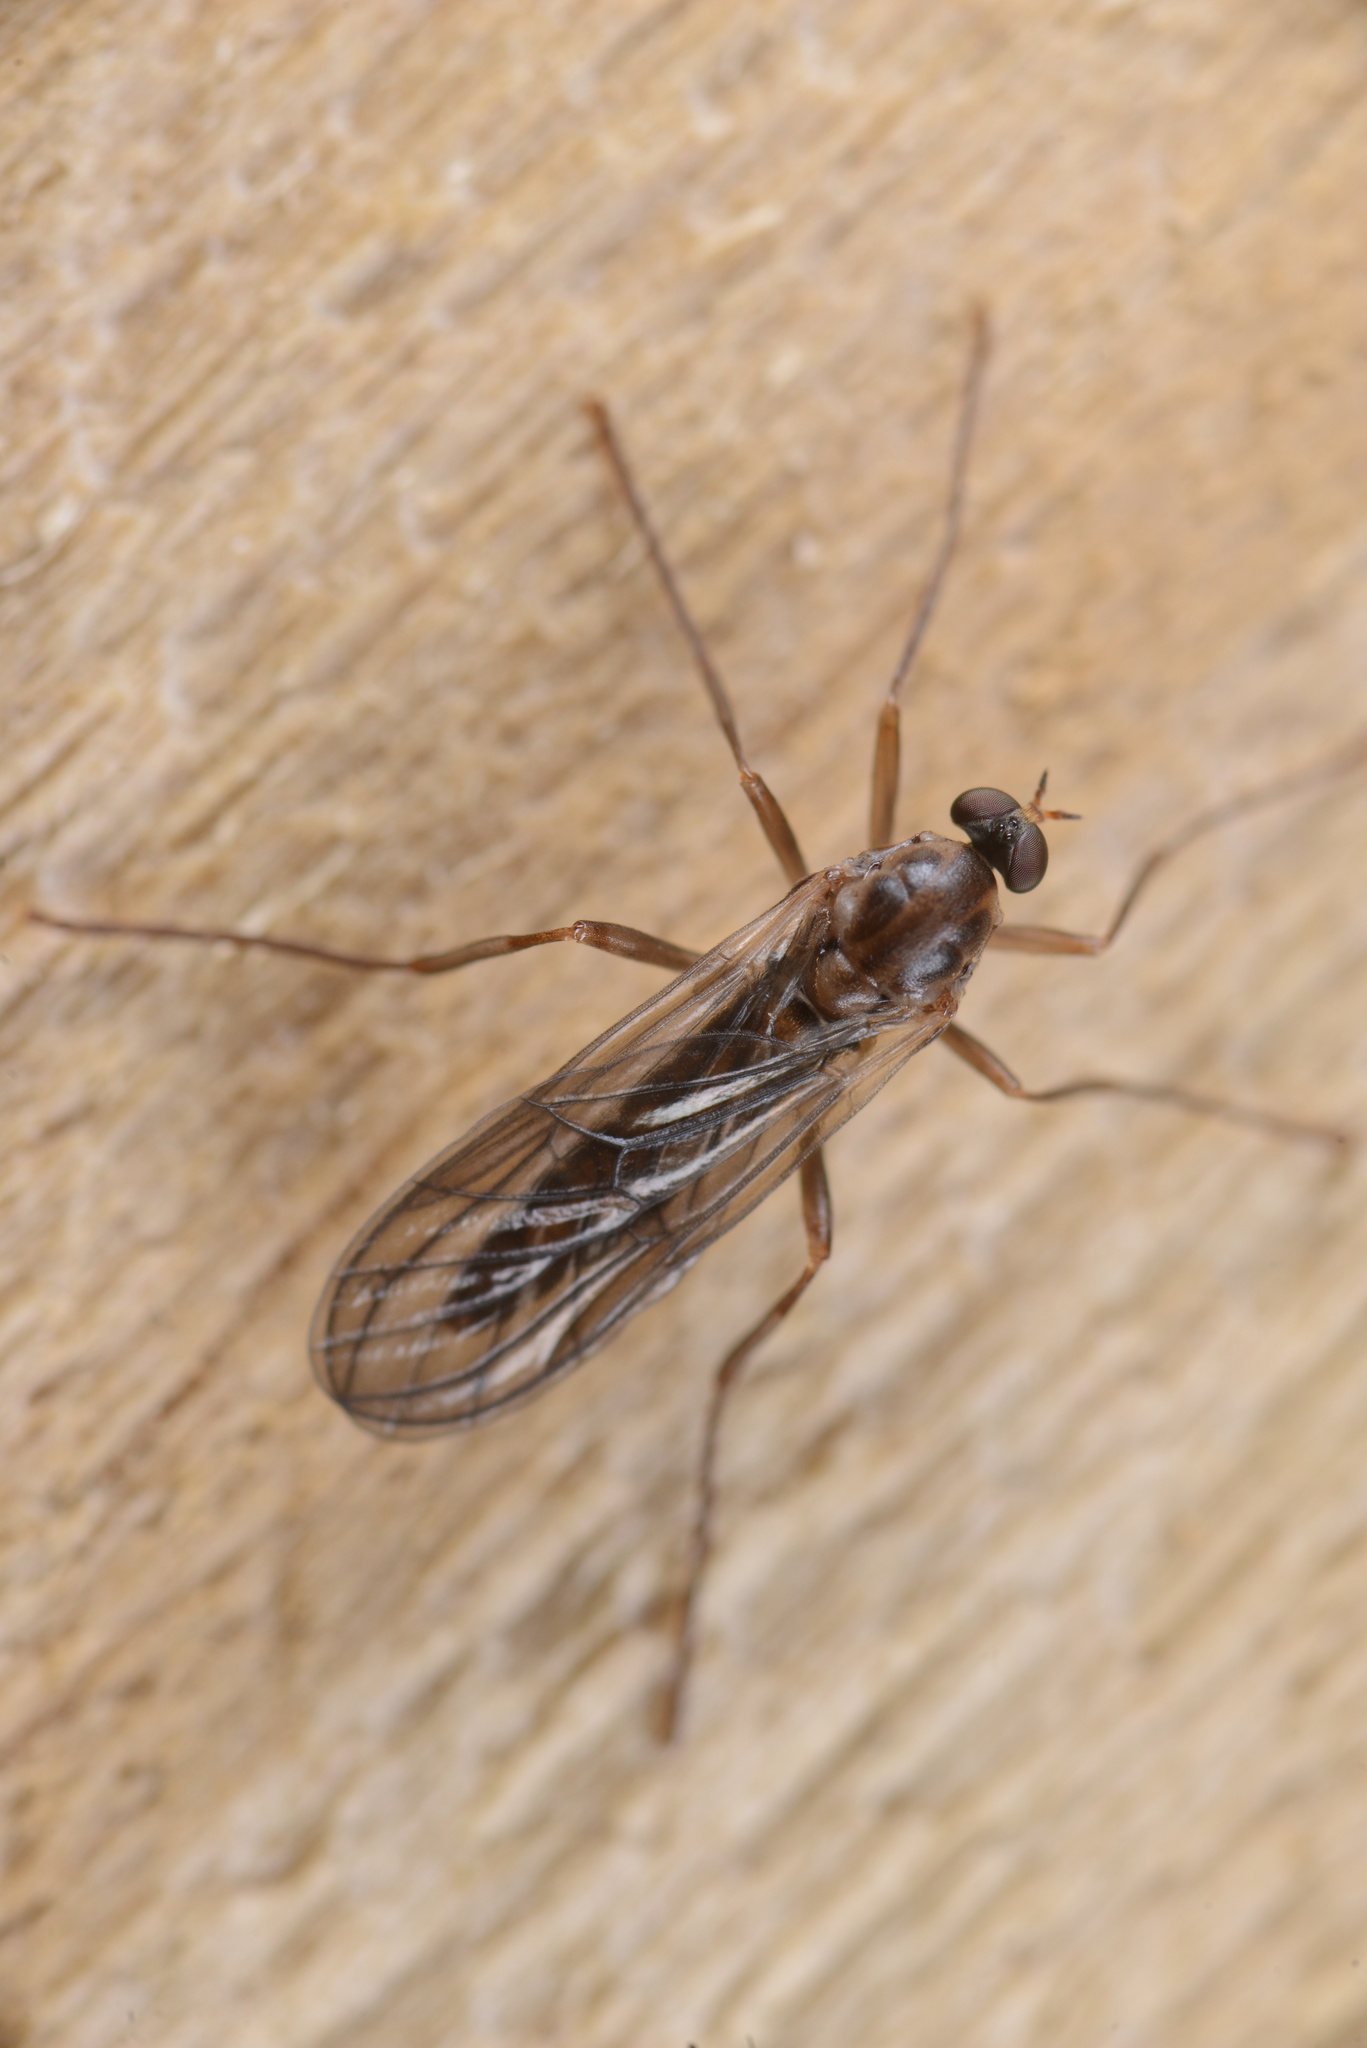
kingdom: Animalia
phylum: Arthropoda
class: Insecta
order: Diptera
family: Stratiomyidae
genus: Boreoides
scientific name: Boreoides tasmaniensis
